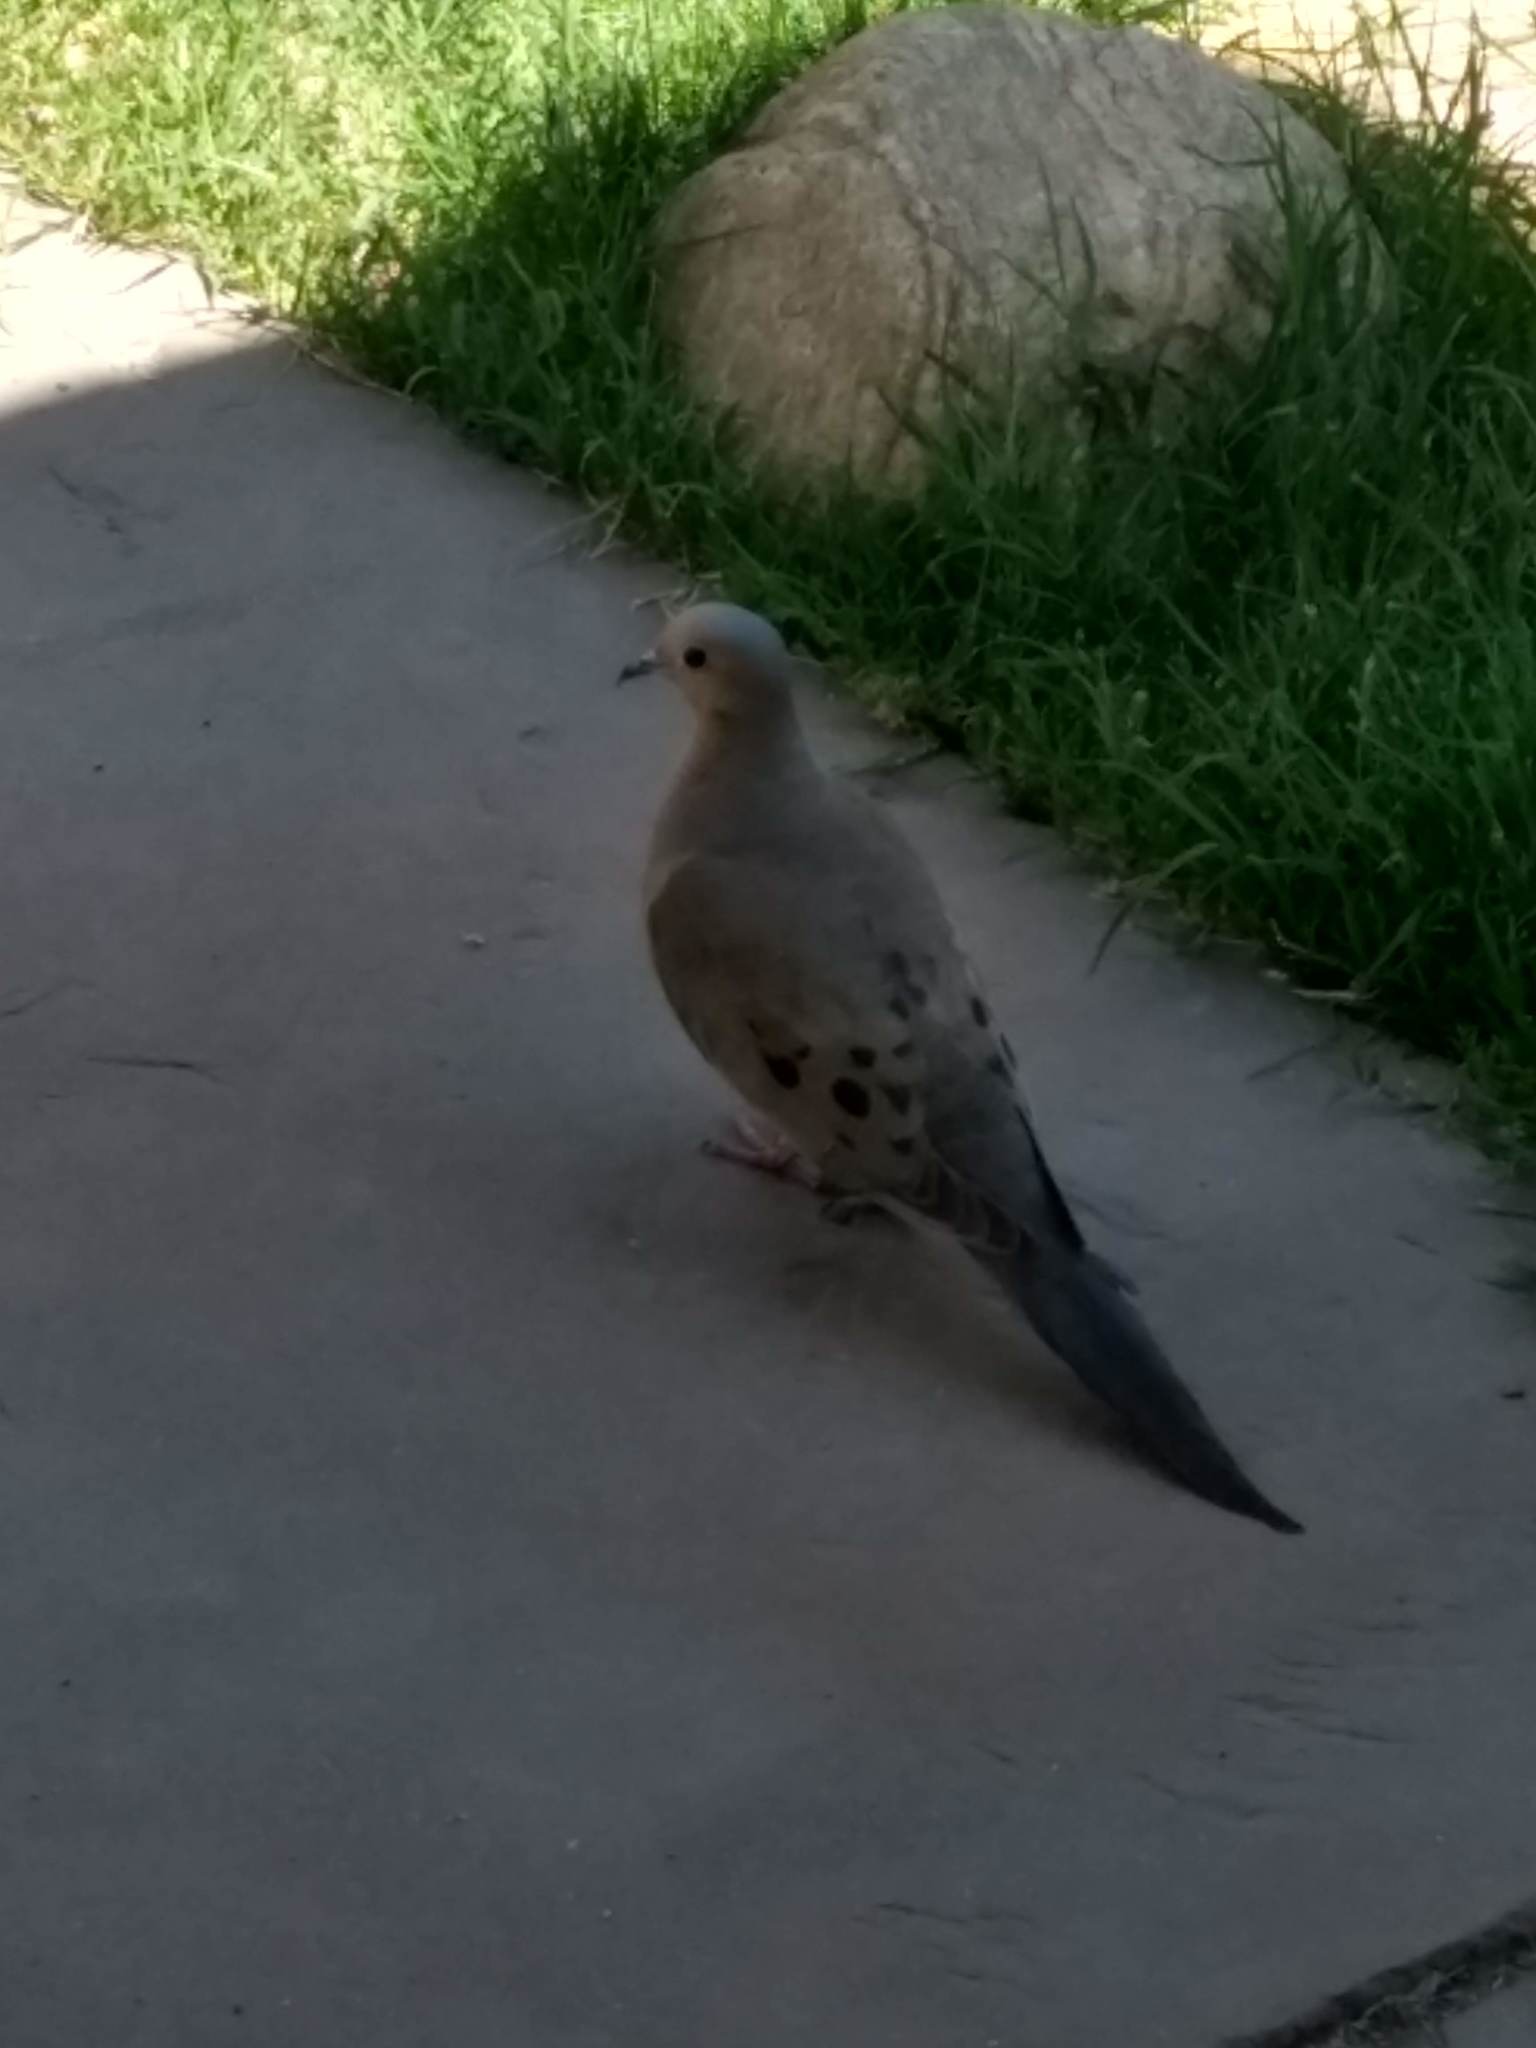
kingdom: Animalia
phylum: Chordata
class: Aves
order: Columbiformes
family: Columbidae
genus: Zenaida
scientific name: Zenaida macroura
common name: Mourning dove
